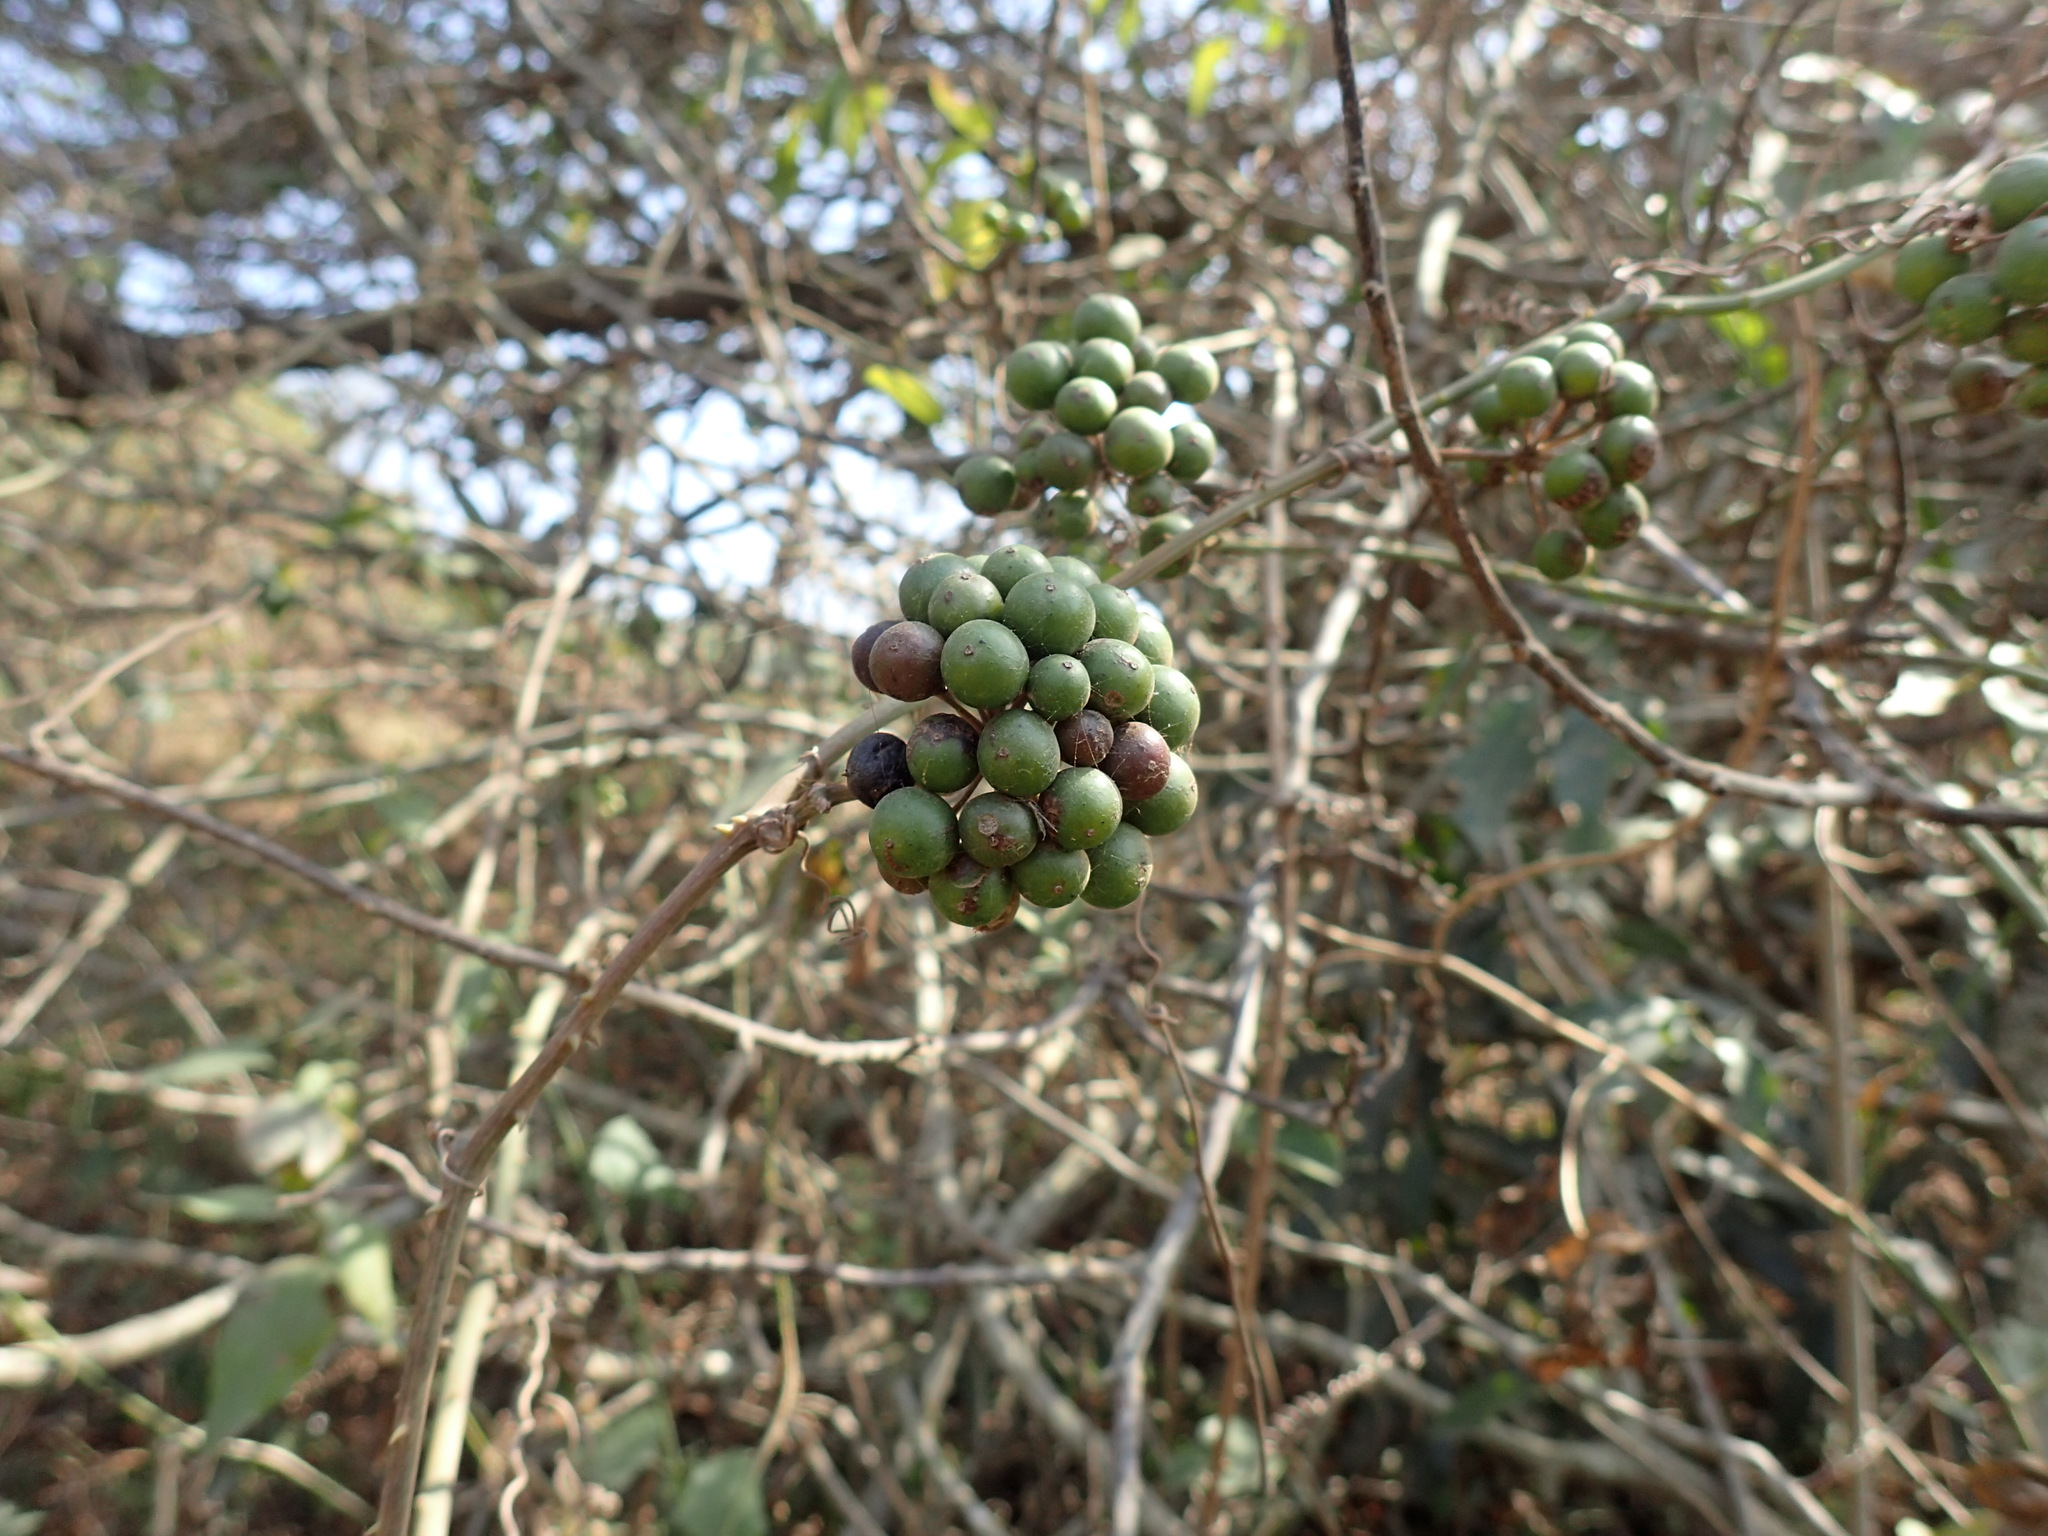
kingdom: Plantae
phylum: Tracheophyta
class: Liliopsida
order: Liliales
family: Smilacaceae
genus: Smilax
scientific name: Smilax anceps
